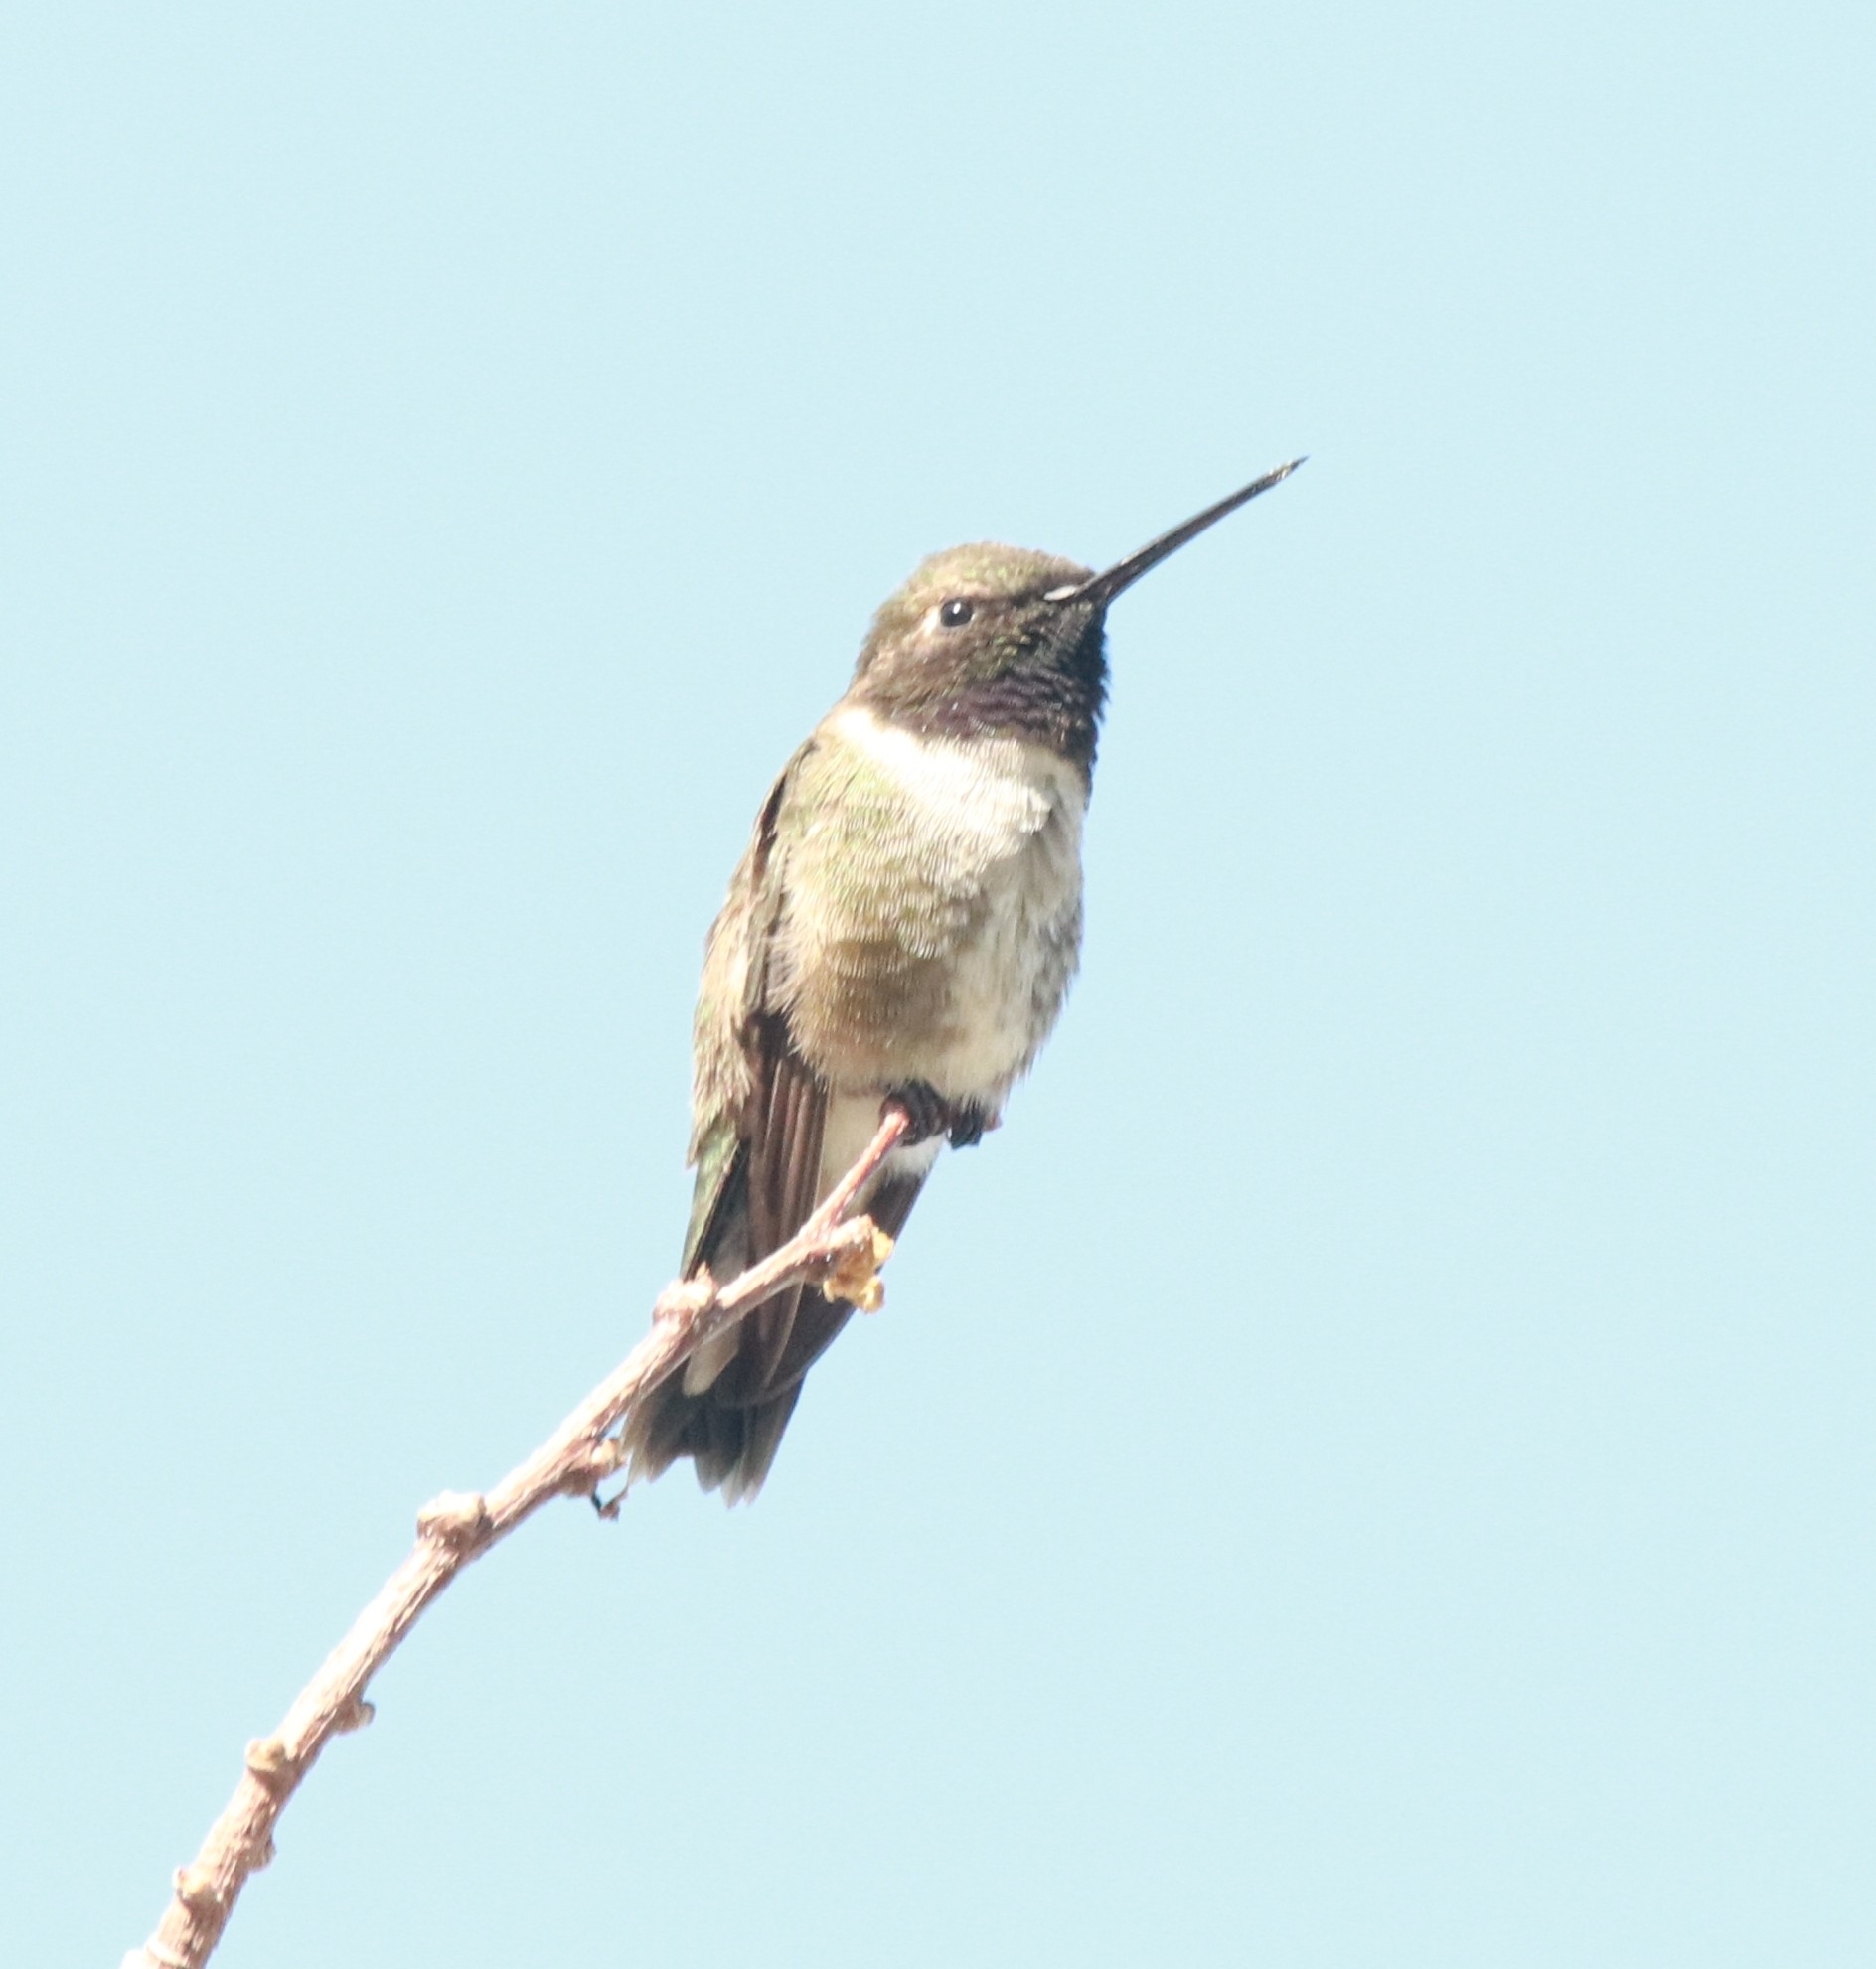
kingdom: Animalia
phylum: Chordata
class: Aves
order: Apodiformes
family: Trochilidae
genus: Archilochus
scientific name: Archilochus alexandri
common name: Black-chinned hummingbird
